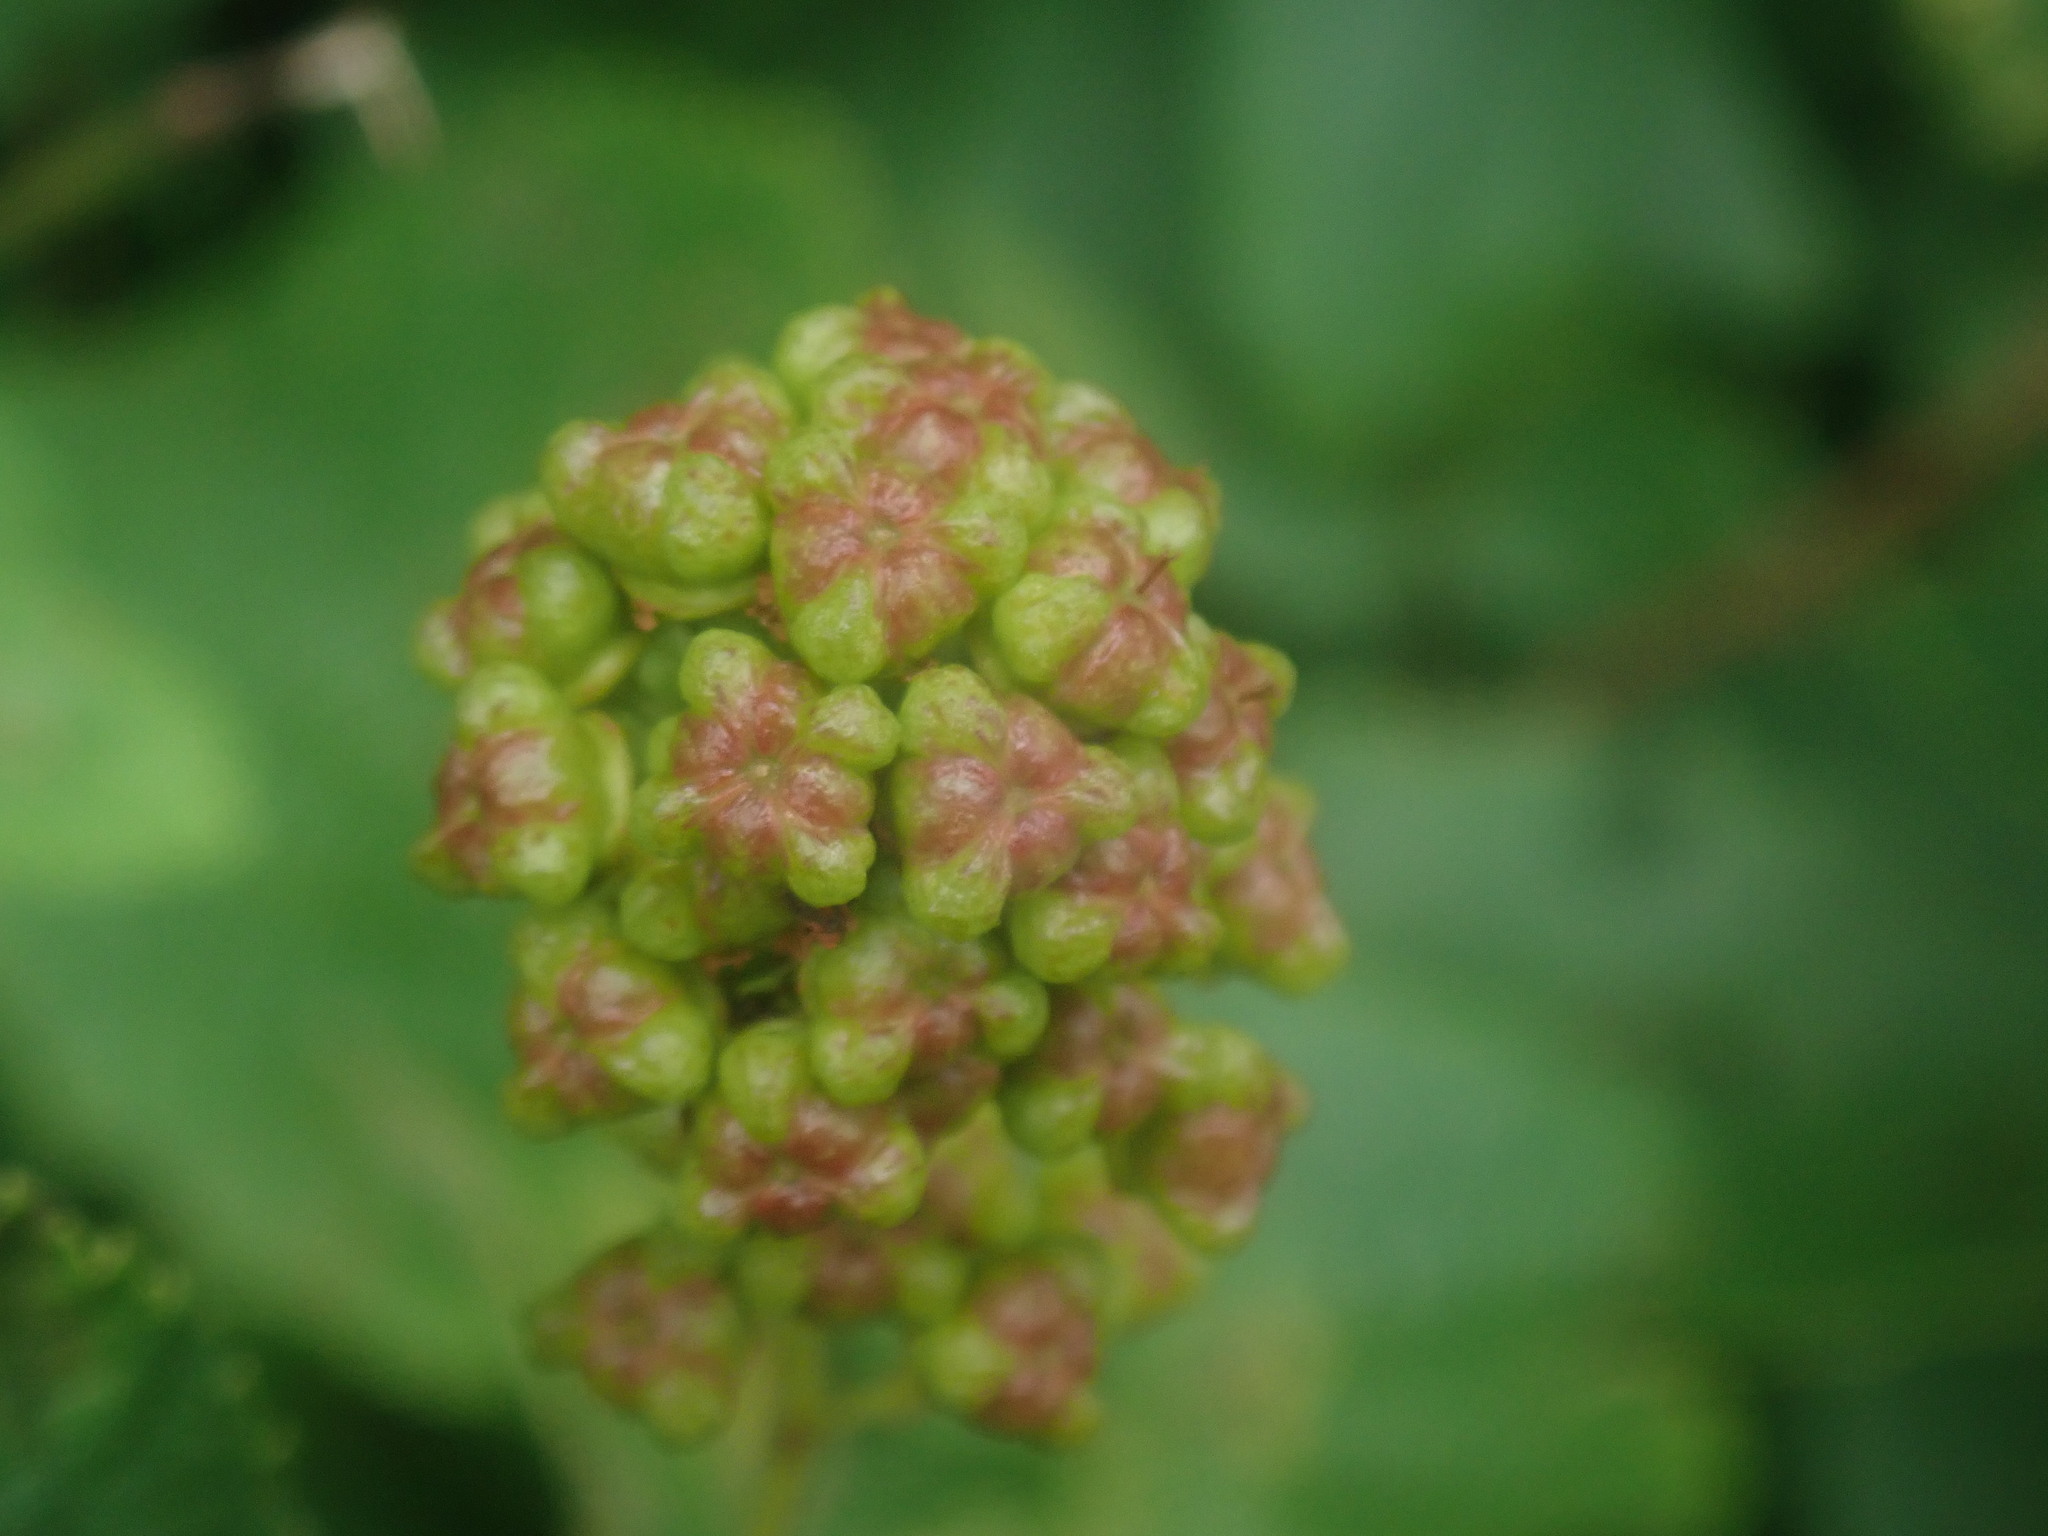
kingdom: Plantae
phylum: Tracheophyta
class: Magnoliopsida
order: Rosales
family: Rhamnaceae
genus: Ceanothus
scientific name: Ceanothus americanus
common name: Redroot
